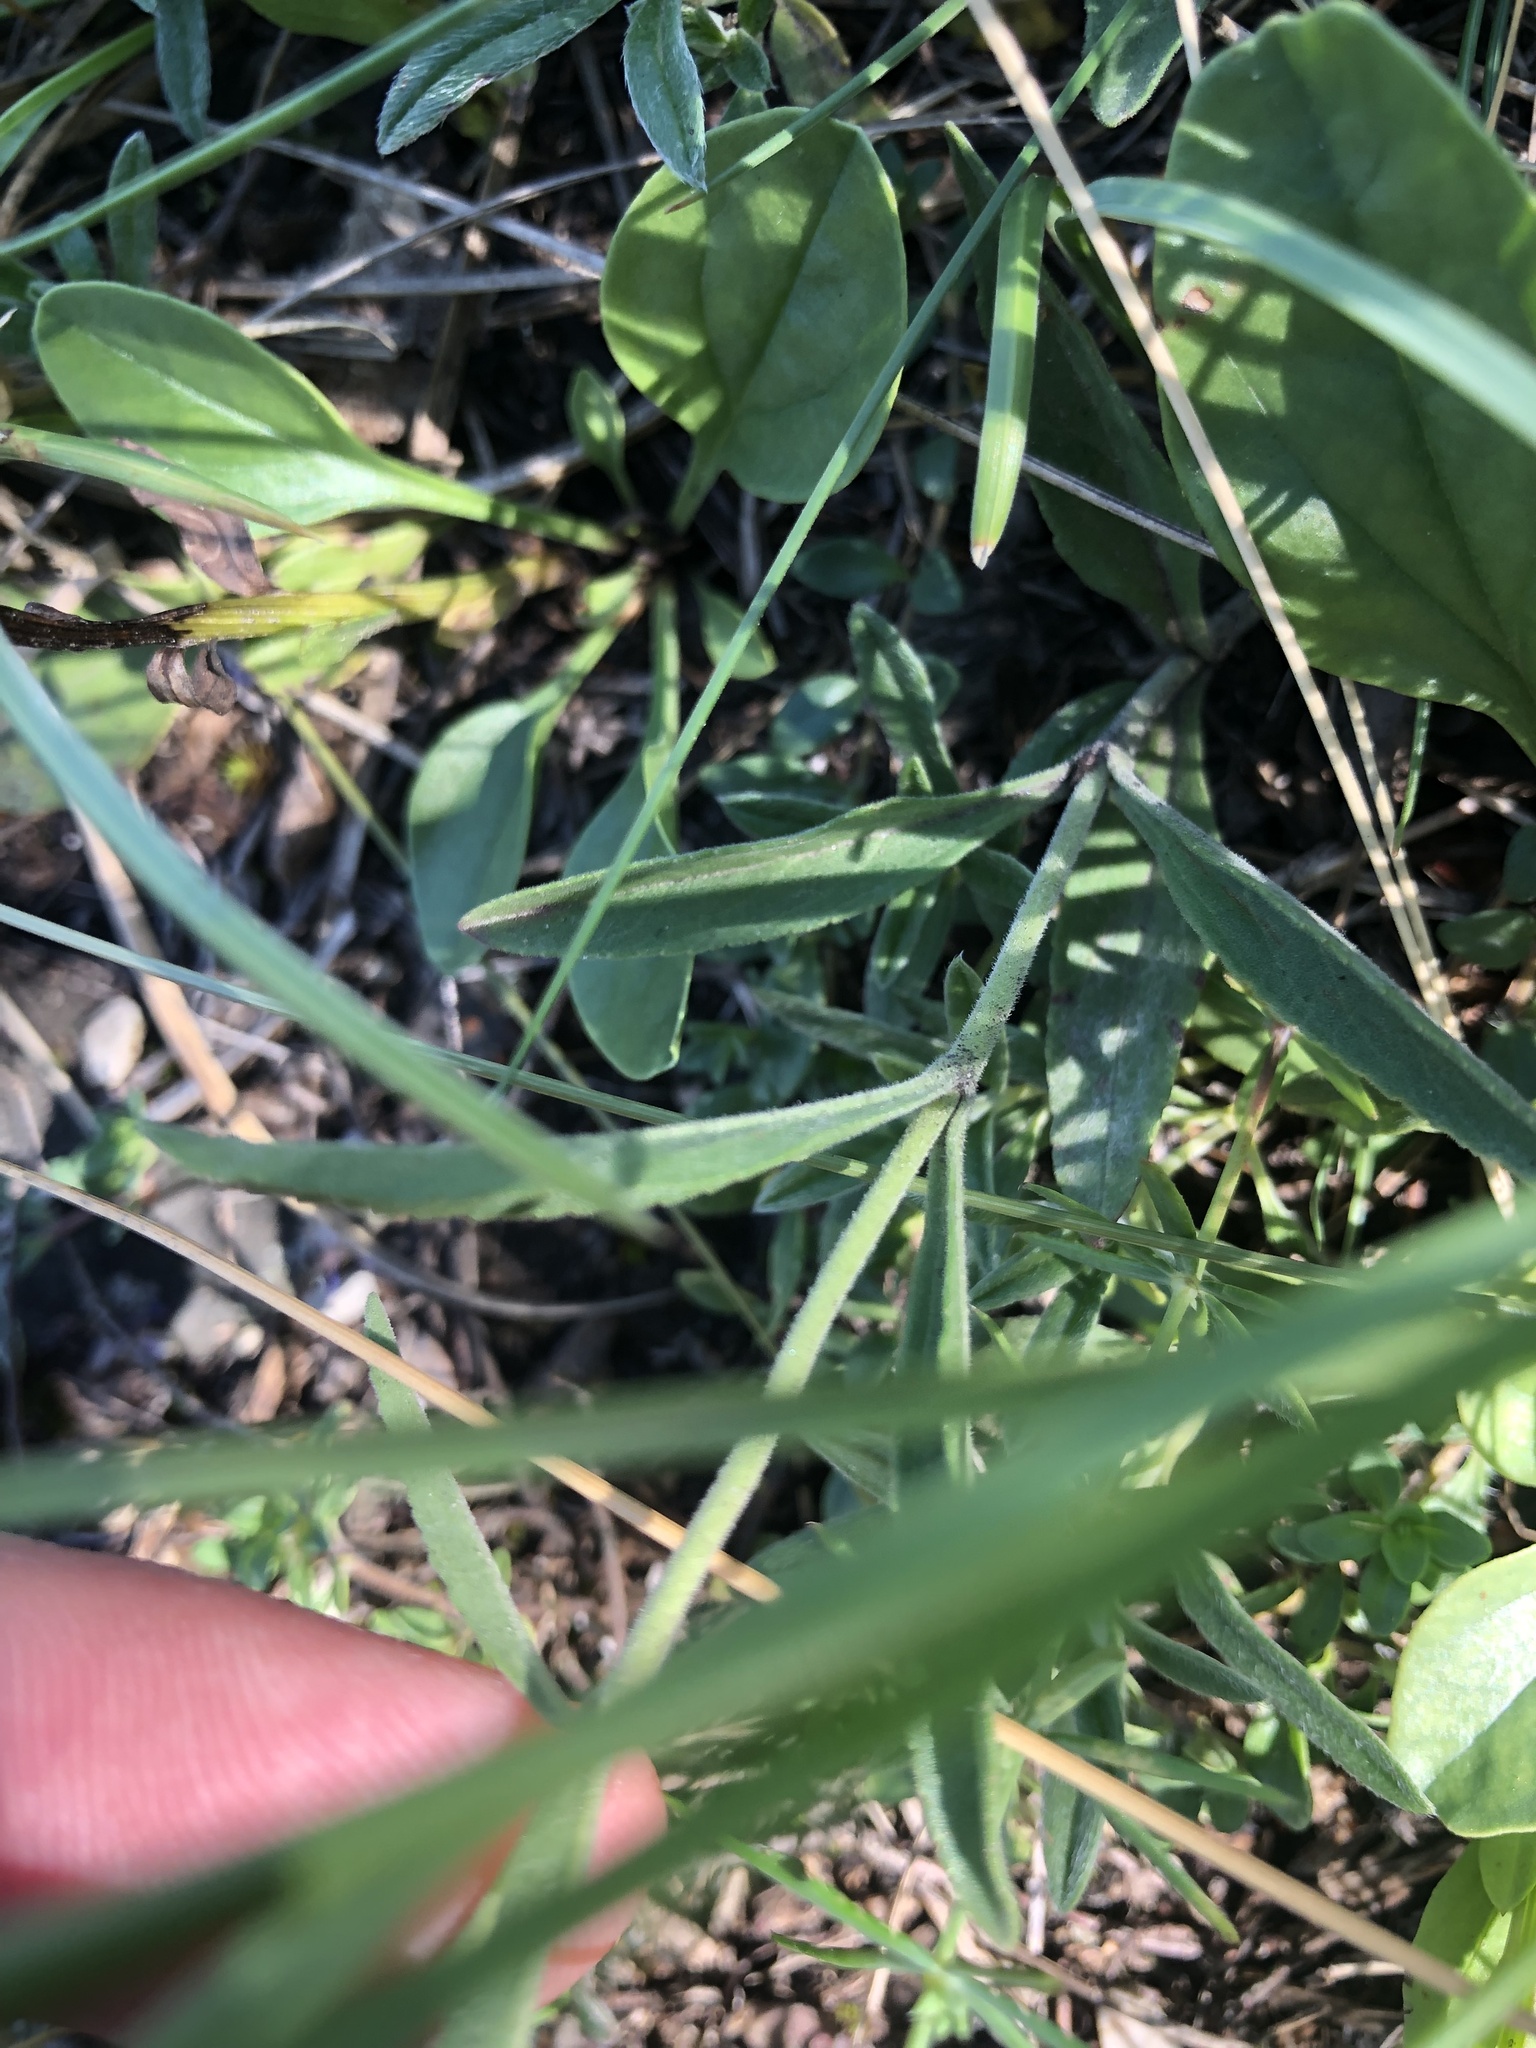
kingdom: Plantae
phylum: Tracheophyta
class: Magnoliopsida
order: Lamiales
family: Plantaginaceae
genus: Veronica
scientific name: Veronica spicata
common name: Spiked speedwell
